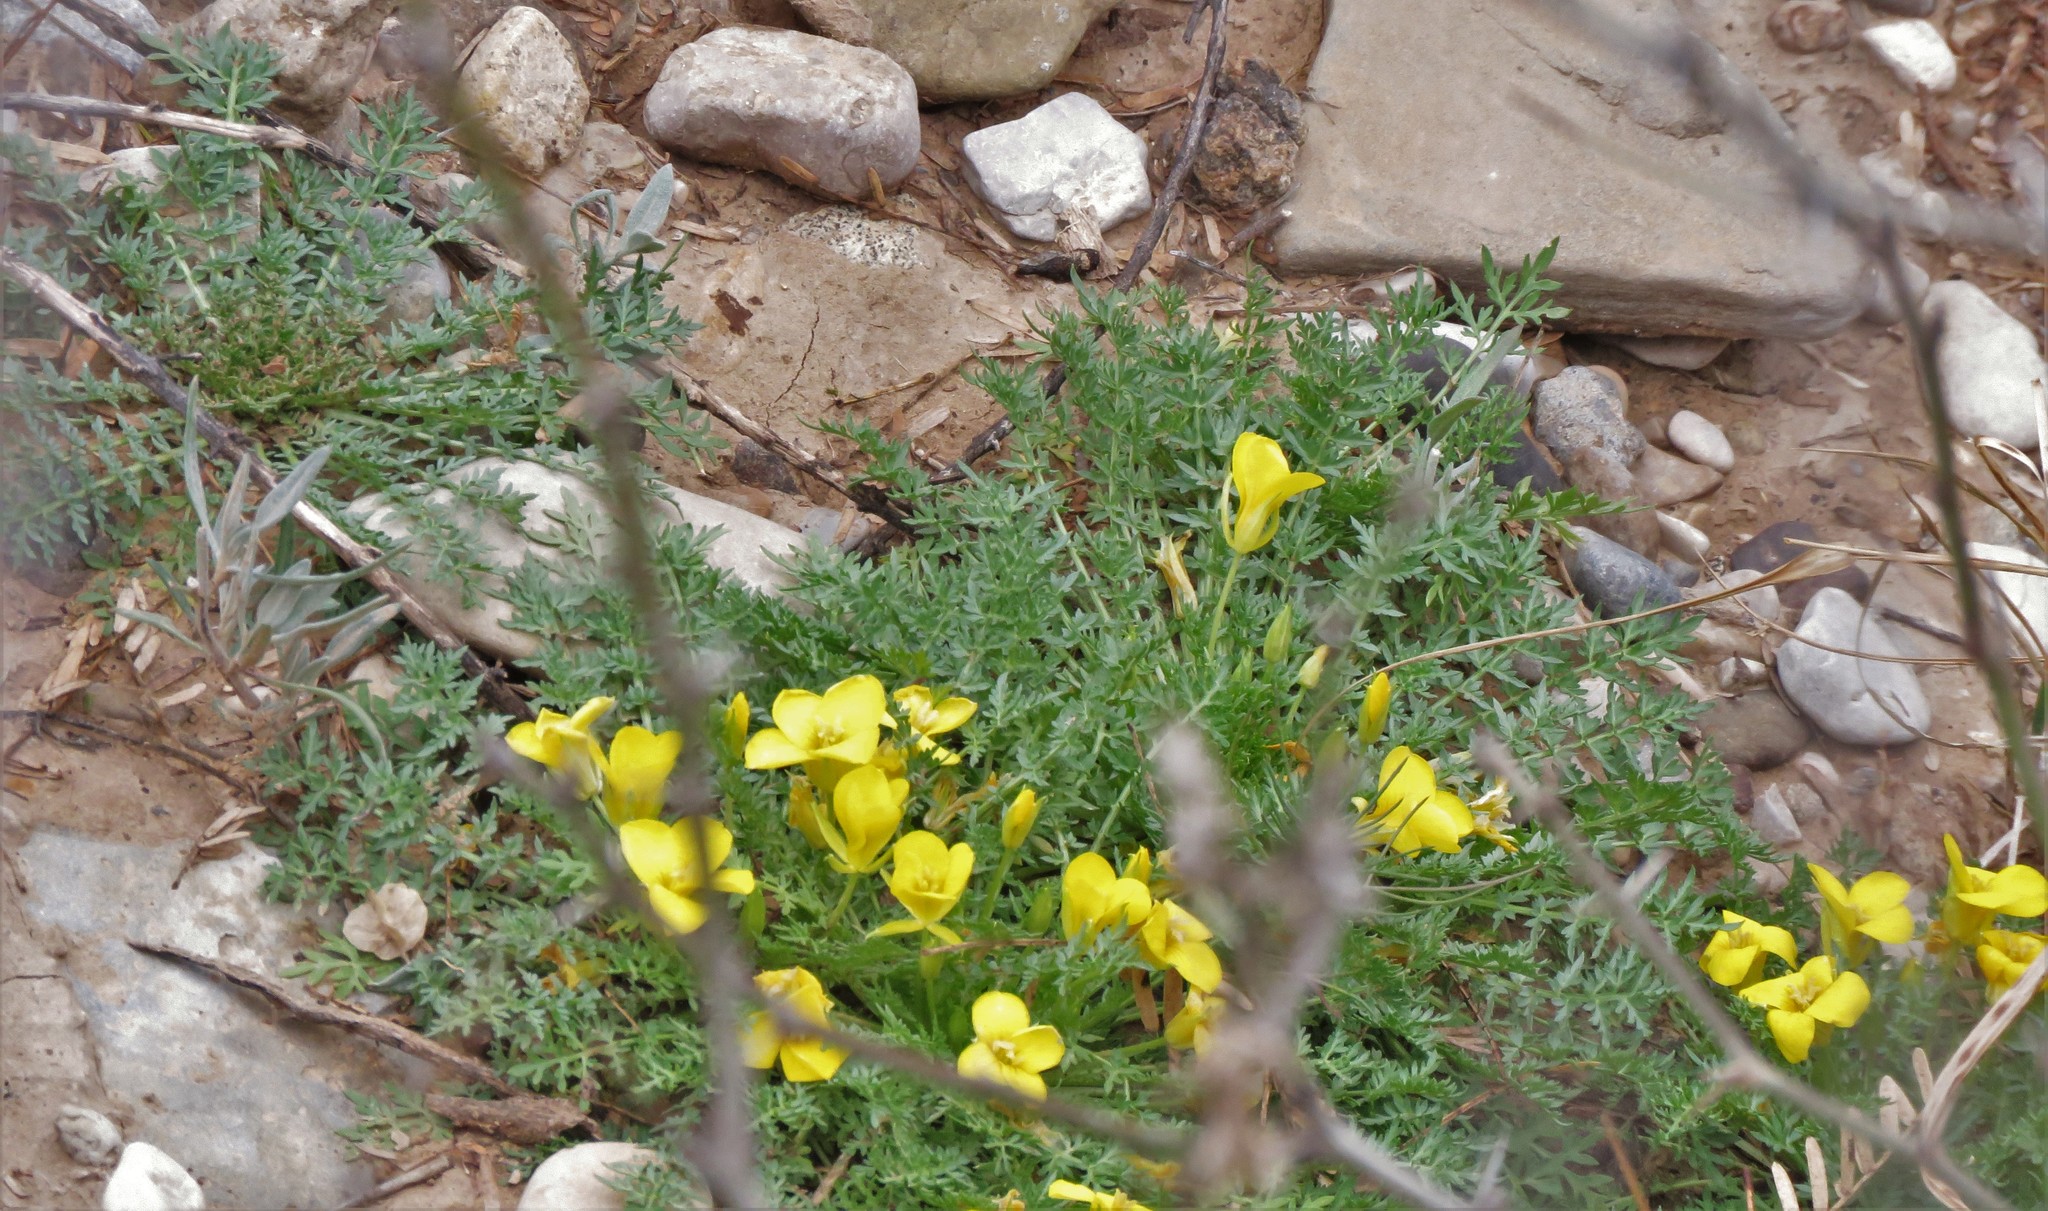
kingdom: Plantae
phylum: Tracheophyta
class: Magnoliopsida
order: Brassicales
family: Brassicaceae
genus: Selenia
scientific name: Selenia dissecta
